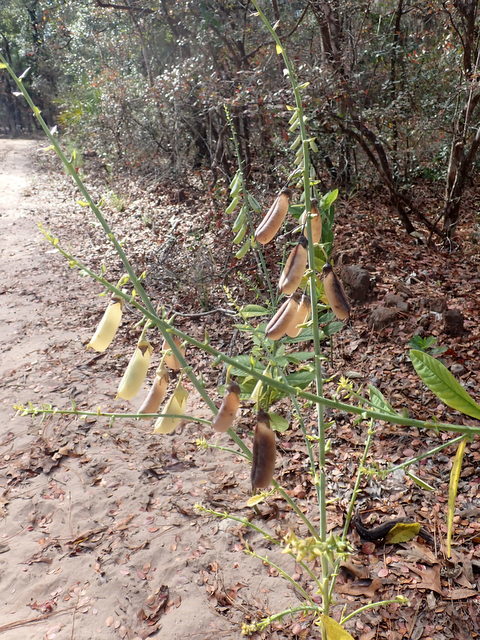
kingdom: Plantae
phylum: Tracheophyta
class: Magnoliopsida
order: Fabales
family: Fabaceae
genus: Crotalaria
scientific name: Crotalaria spectabilis
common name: Showy rattlebox
